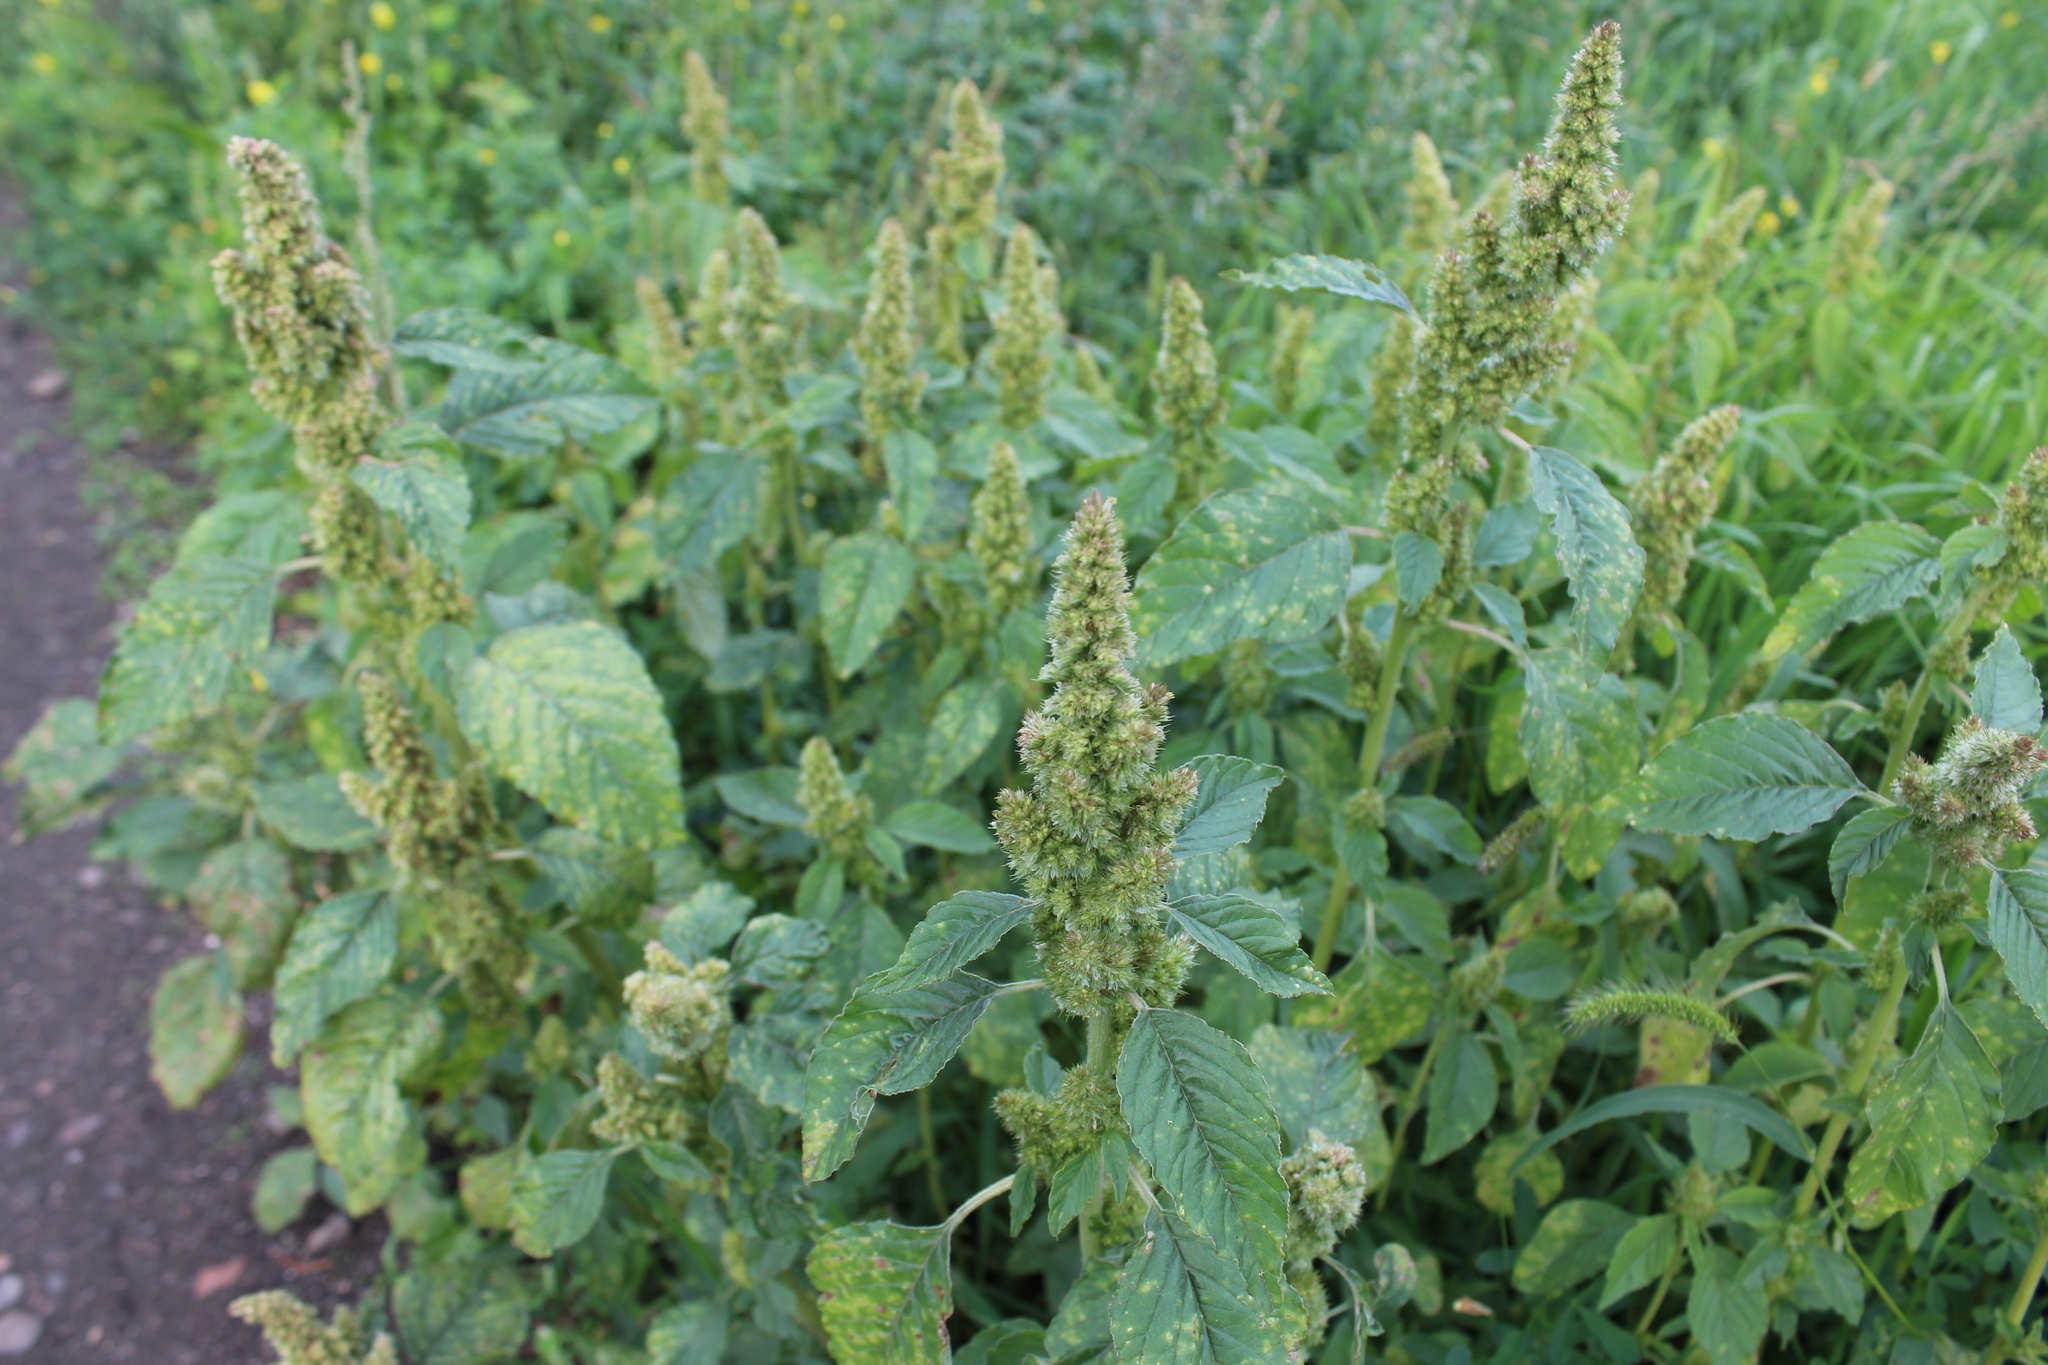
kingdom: Plantae
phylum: Tracheophyta
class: Magnoliopsida
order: Caryophyllales
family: Amaranthaceae
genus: Amaranthus
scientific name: Amaranthus retroflexus
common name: Redroot amaranth
